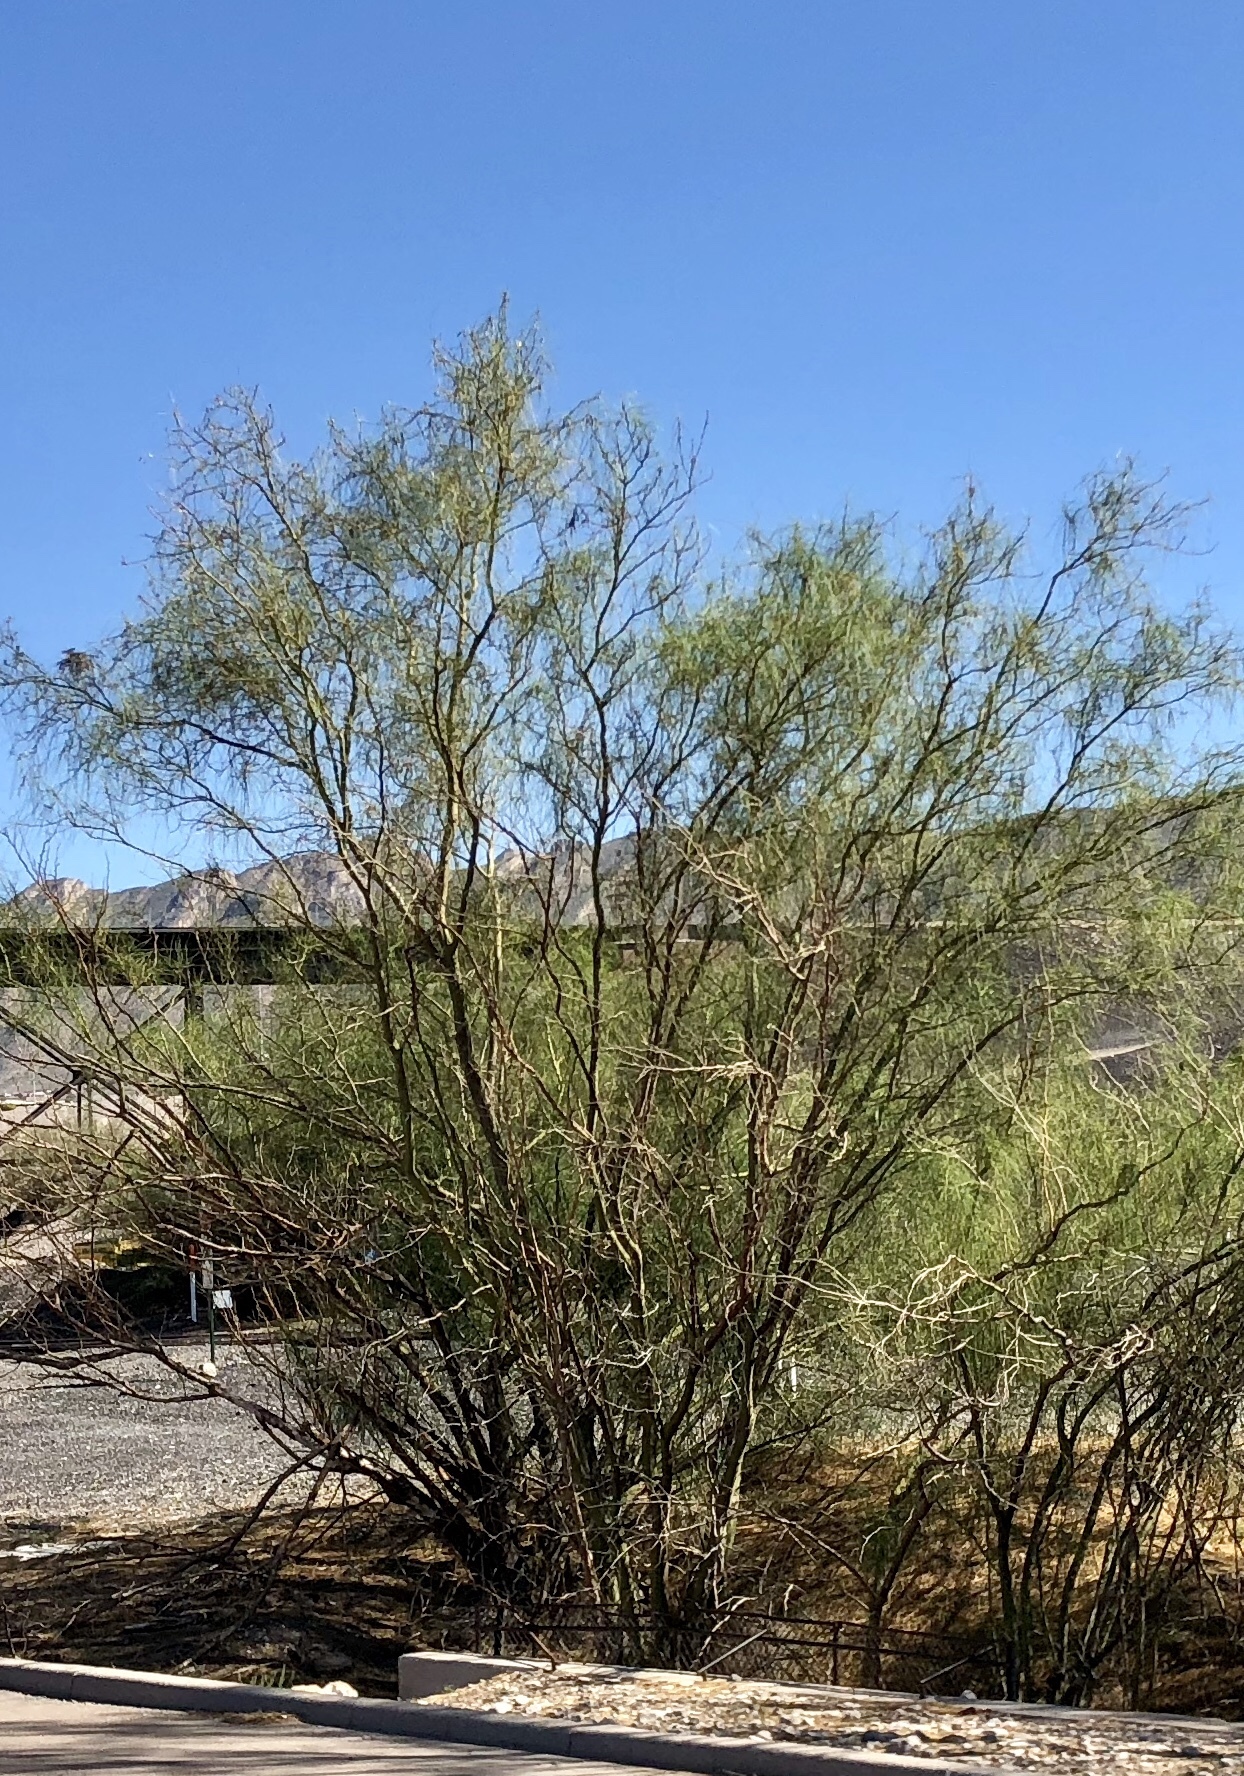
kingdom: Plantae
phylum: Tracheophyta
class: Magnoliopsida
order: Fabales
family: Fabaceae
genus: Parkinsonia
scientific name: Parkinsonia aculeata
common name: Jerusalem thorn
